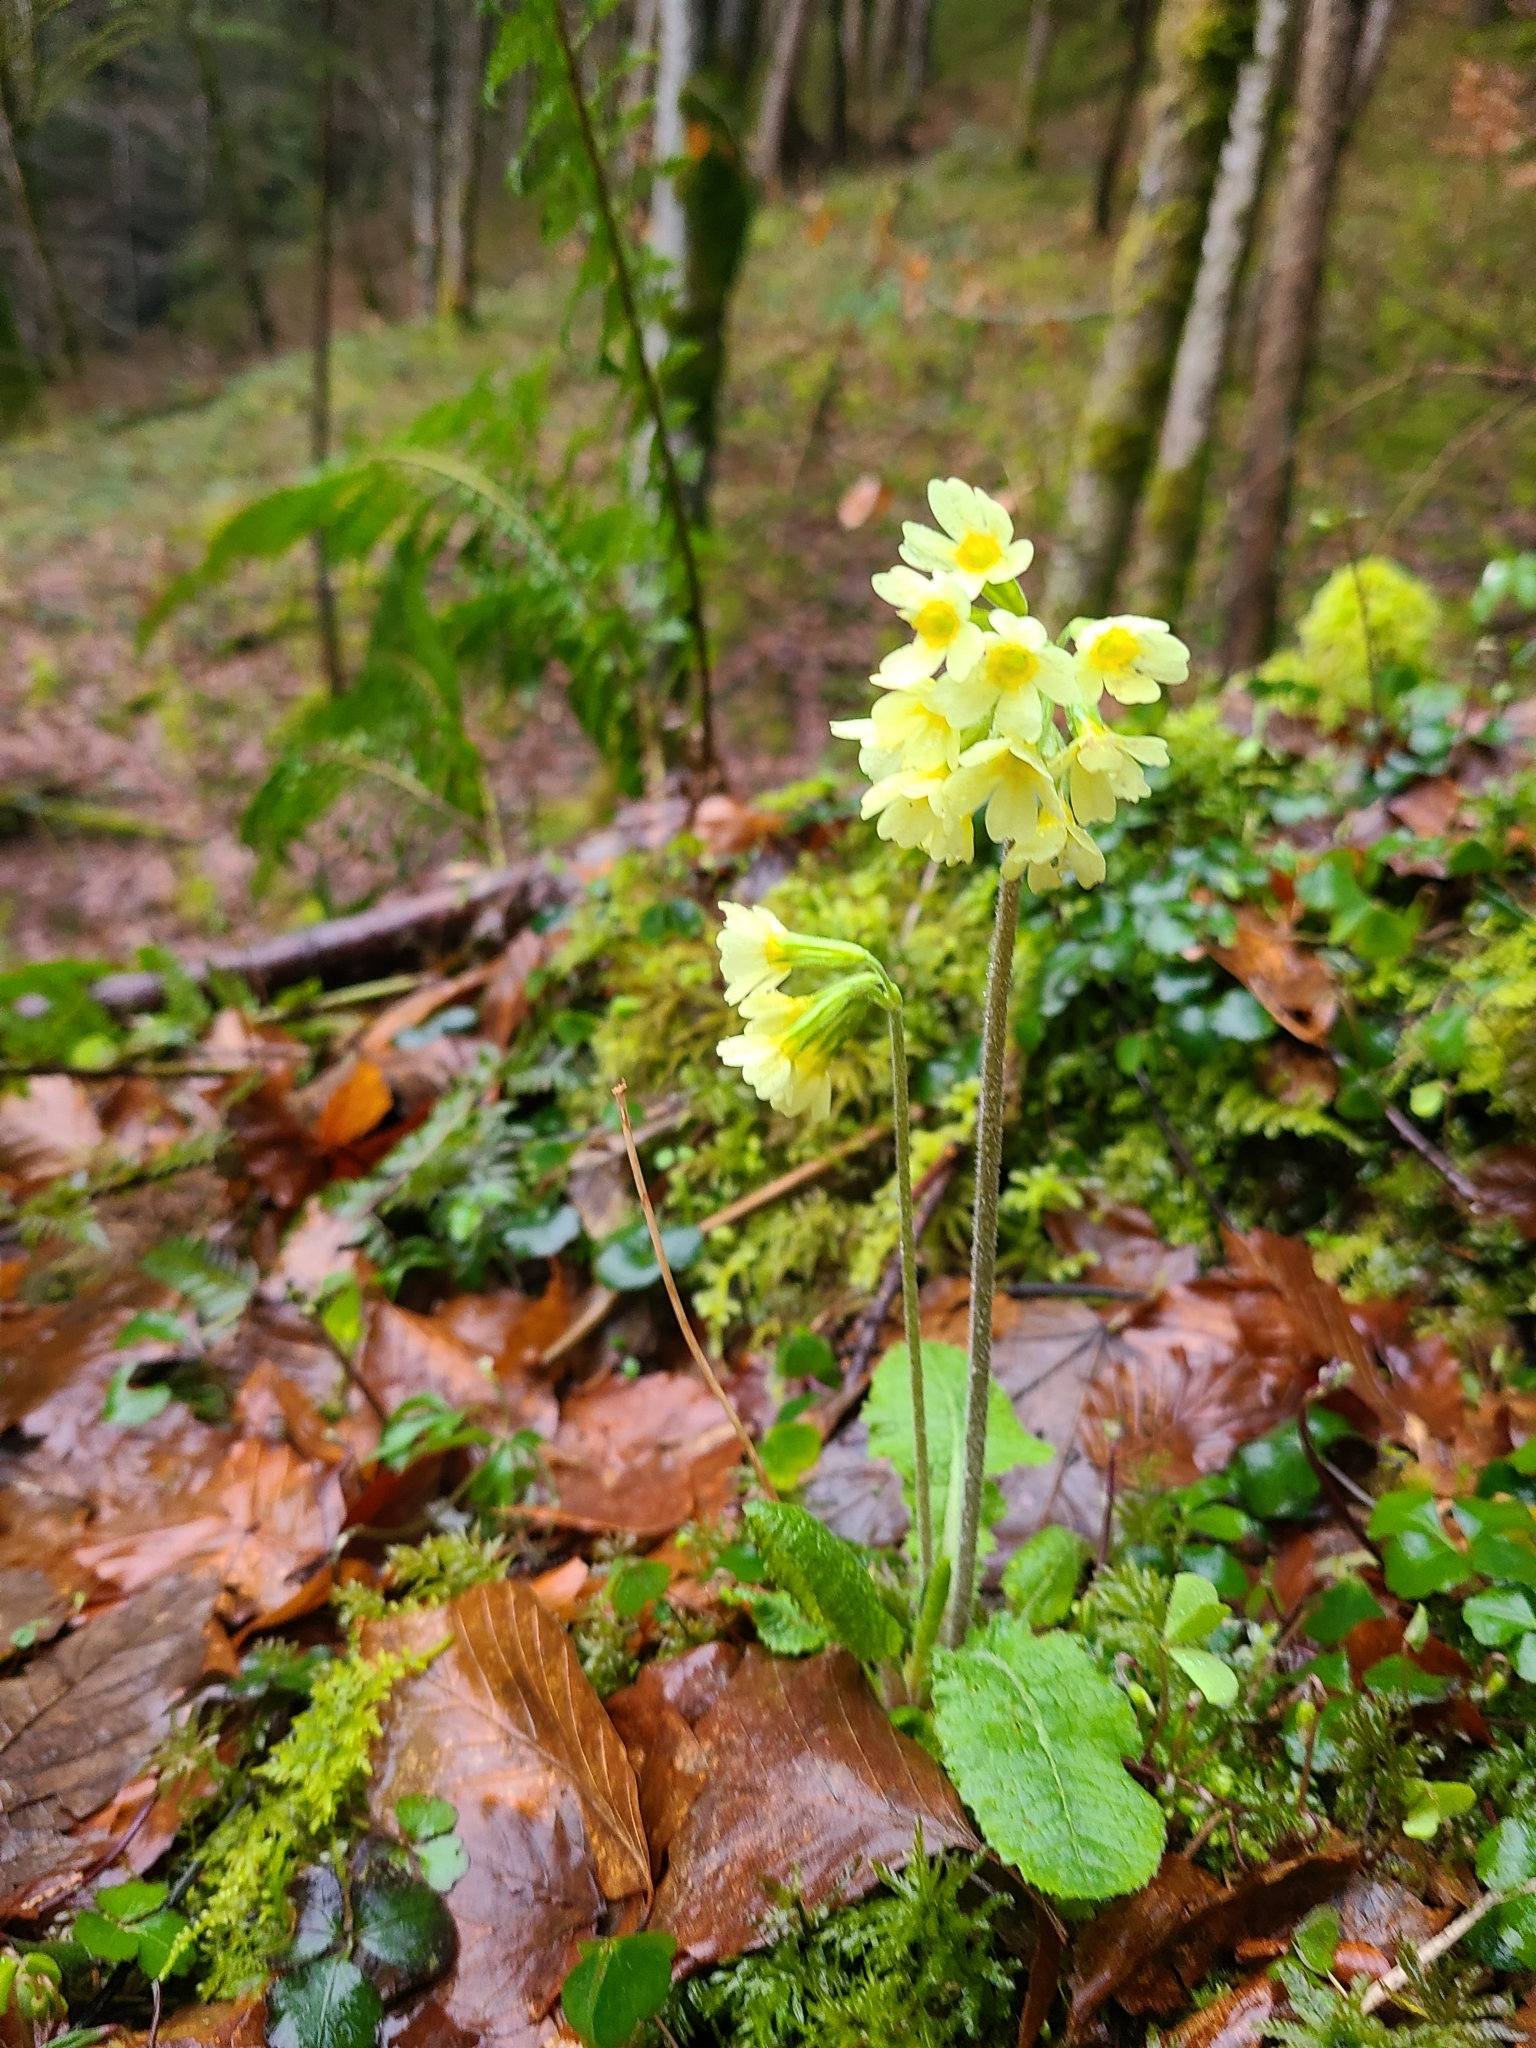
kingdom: Plantae
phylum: Tracheophyta
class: Magnoliopsida
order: Ericales
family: Primulaceae
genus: Primula
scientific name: Primula elatior
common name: Oxlip
